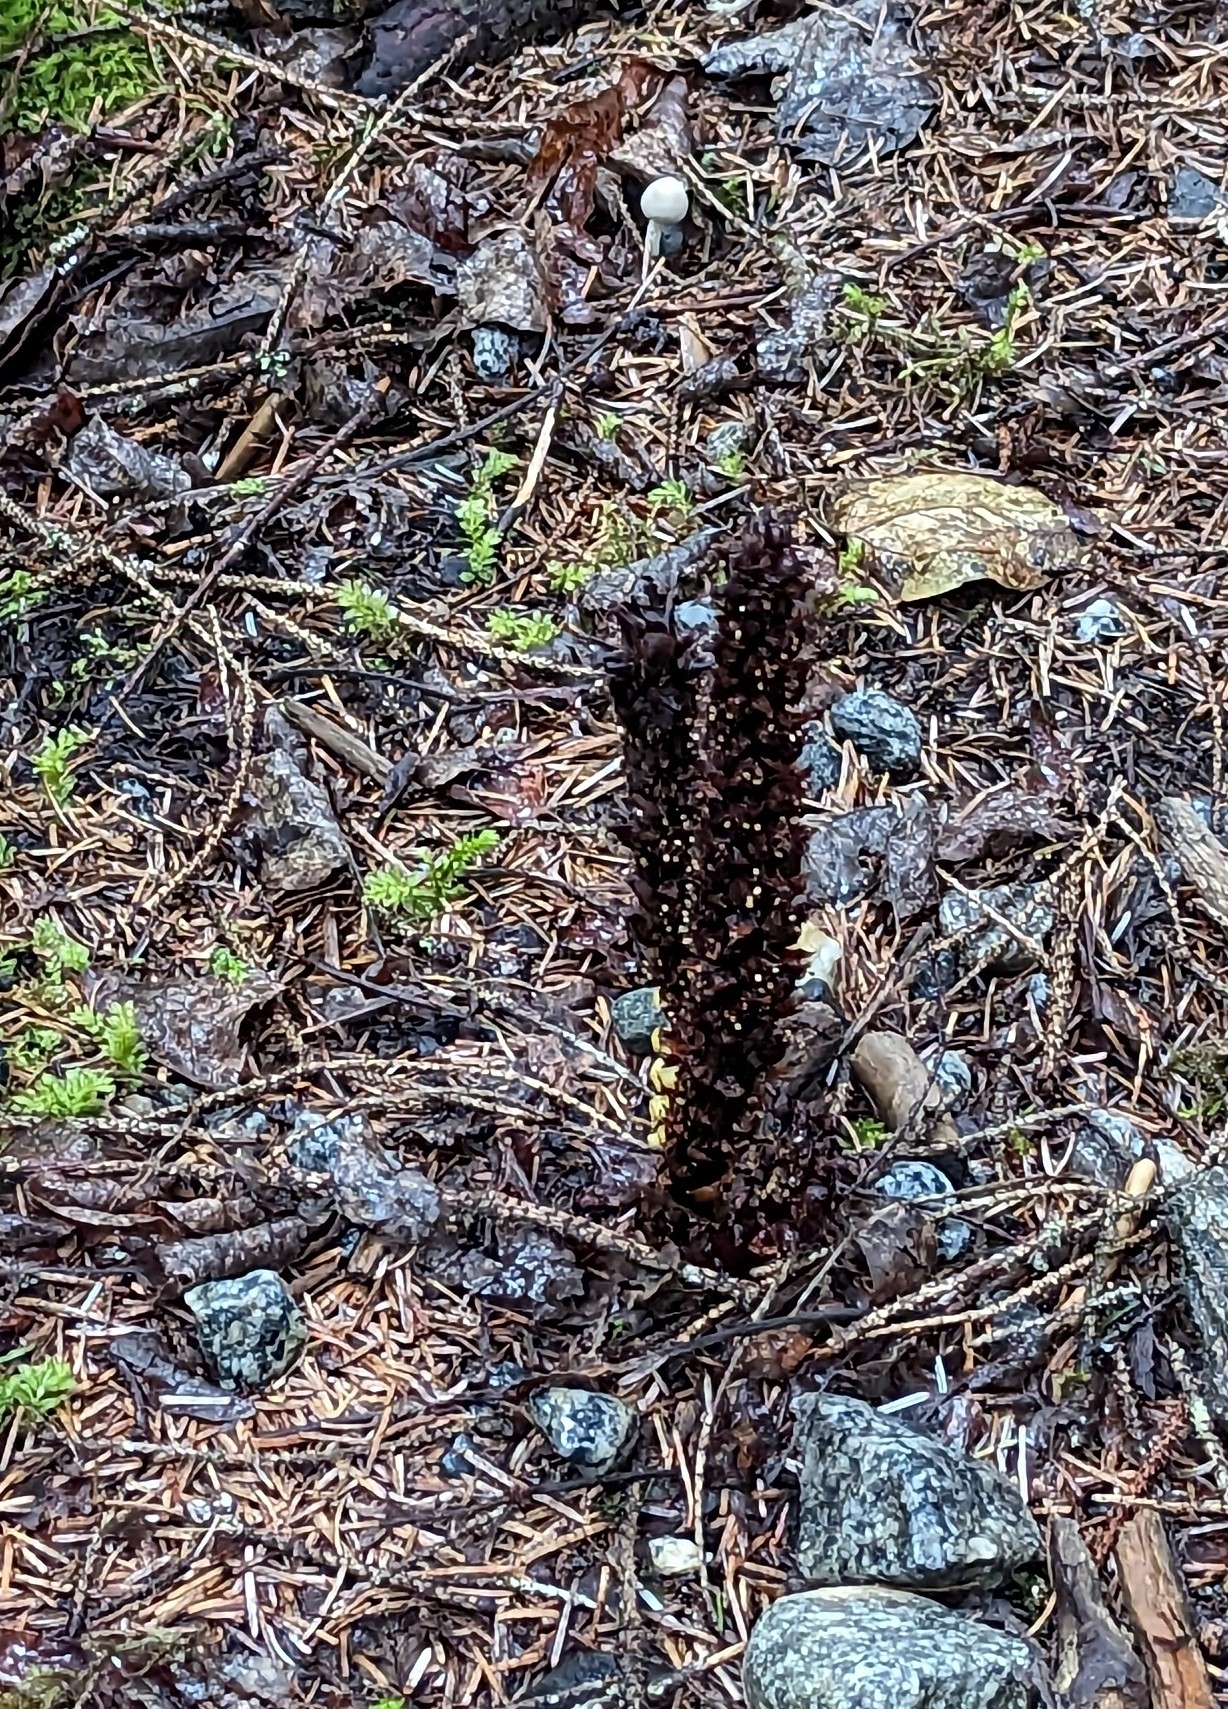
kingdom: Plantae
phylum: Tracheophyta
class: Magnoliopsida
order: Lamiales
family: Orobanchaceae
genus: Boschniakia
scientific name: Boschniakia rossica
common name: Poque
